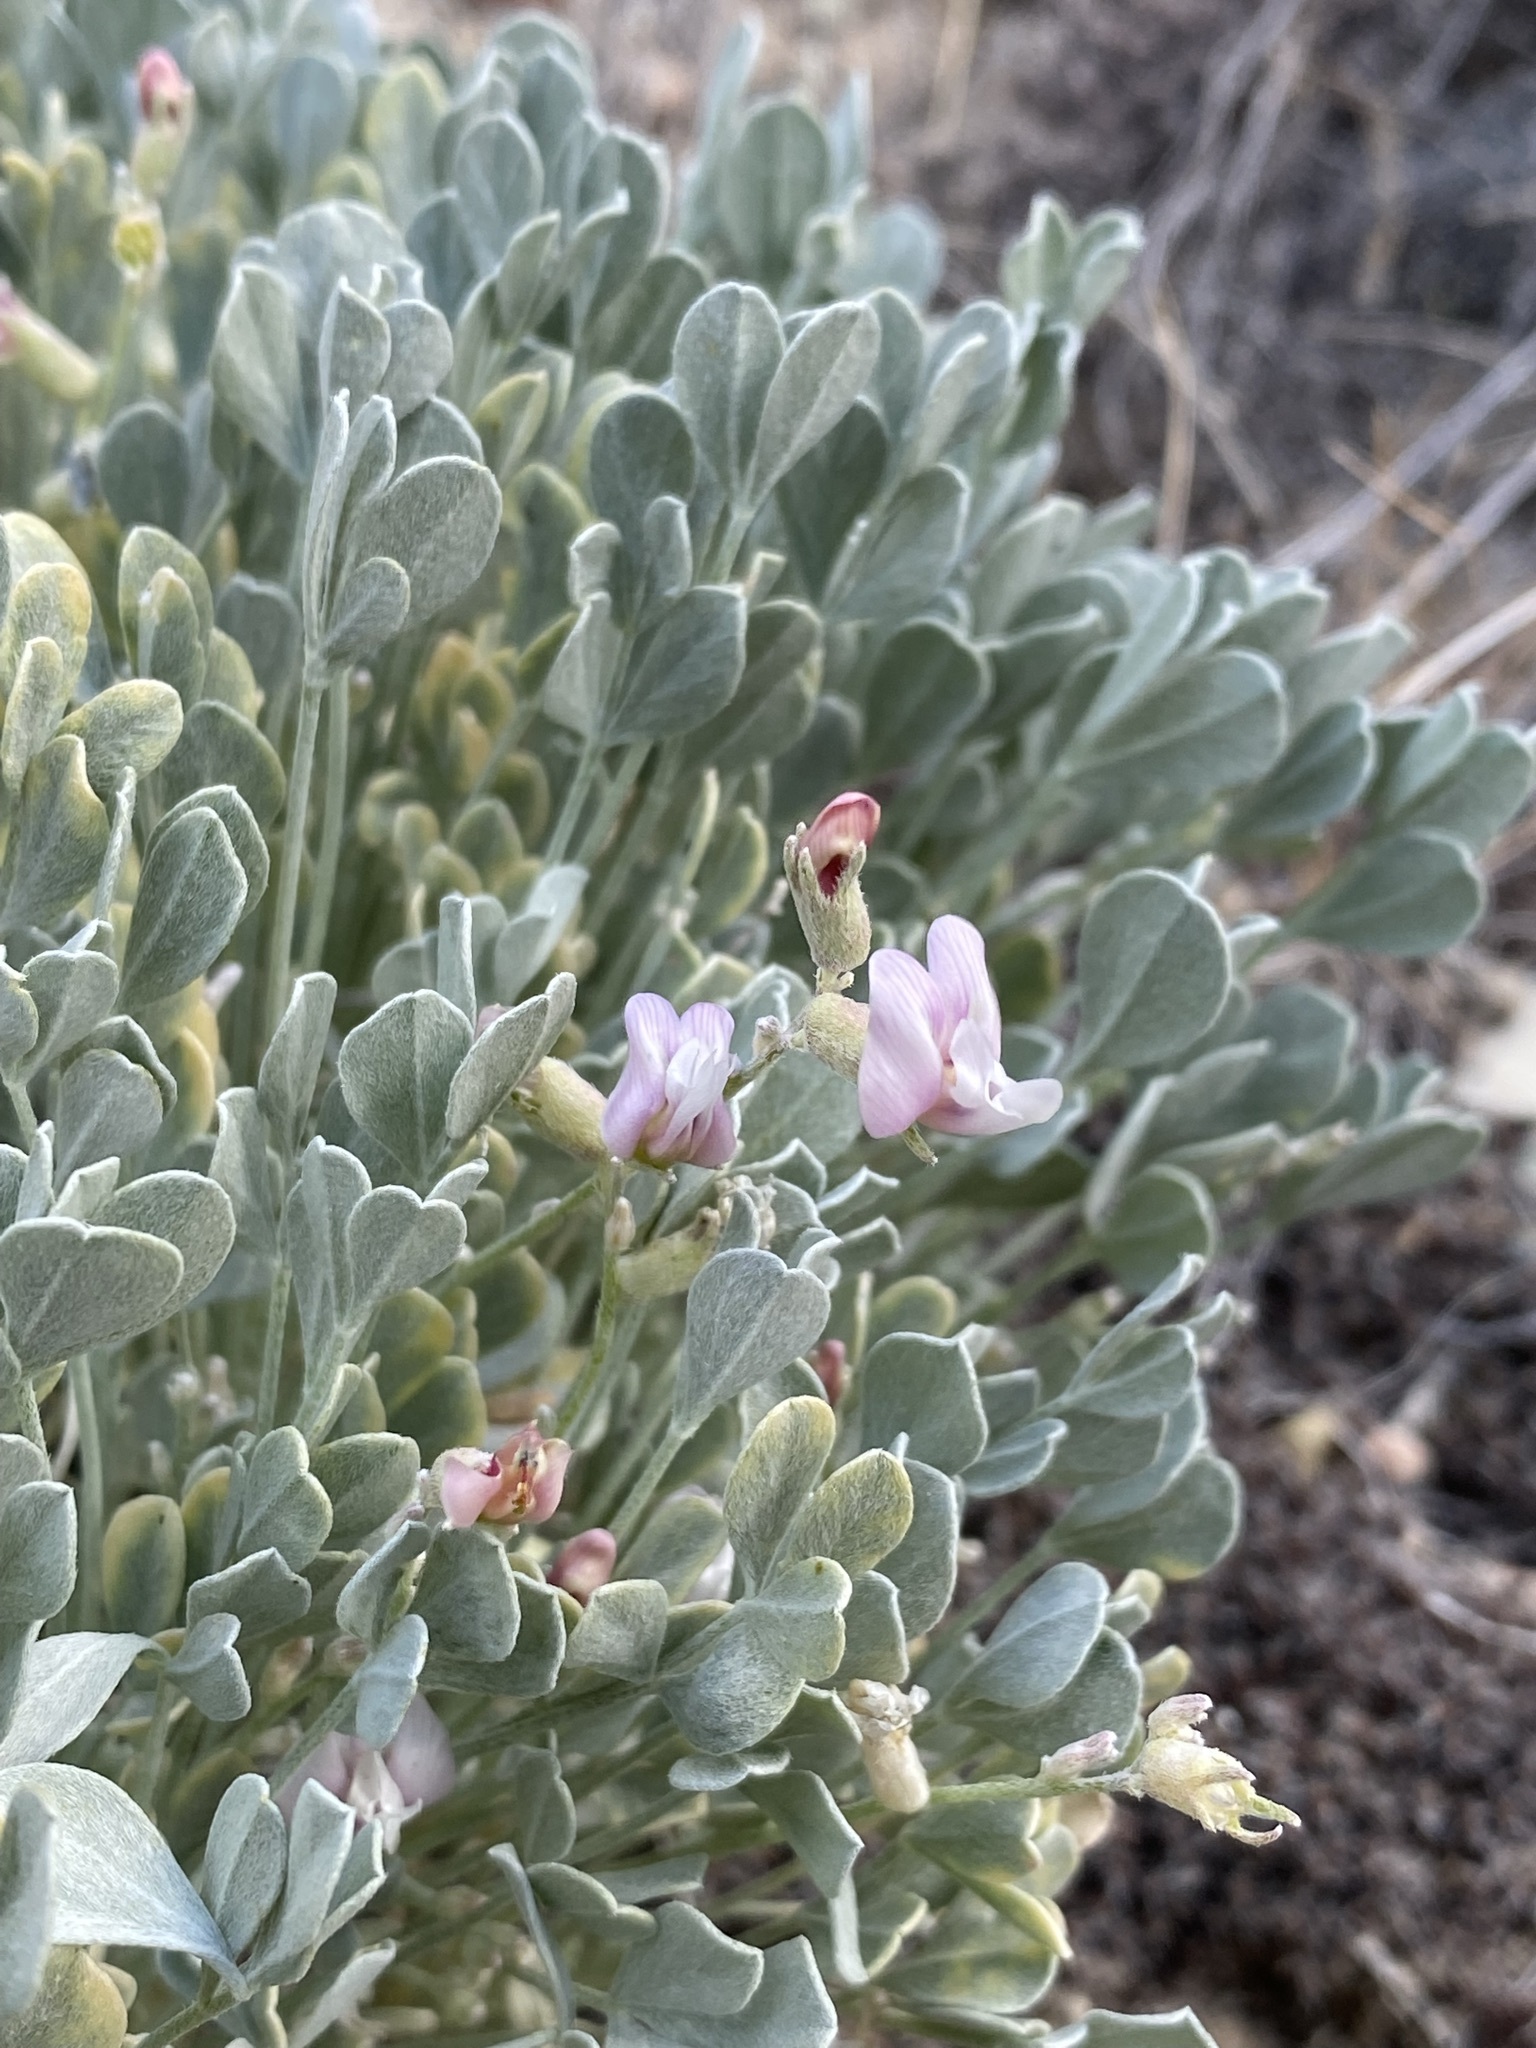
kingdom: Plantae
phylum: Tracheophyta
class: Magnoliopsida
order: Fabales
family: Fabaceae
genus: Astragalus
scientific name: Astragalus calycosus
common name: King's milkvetch
